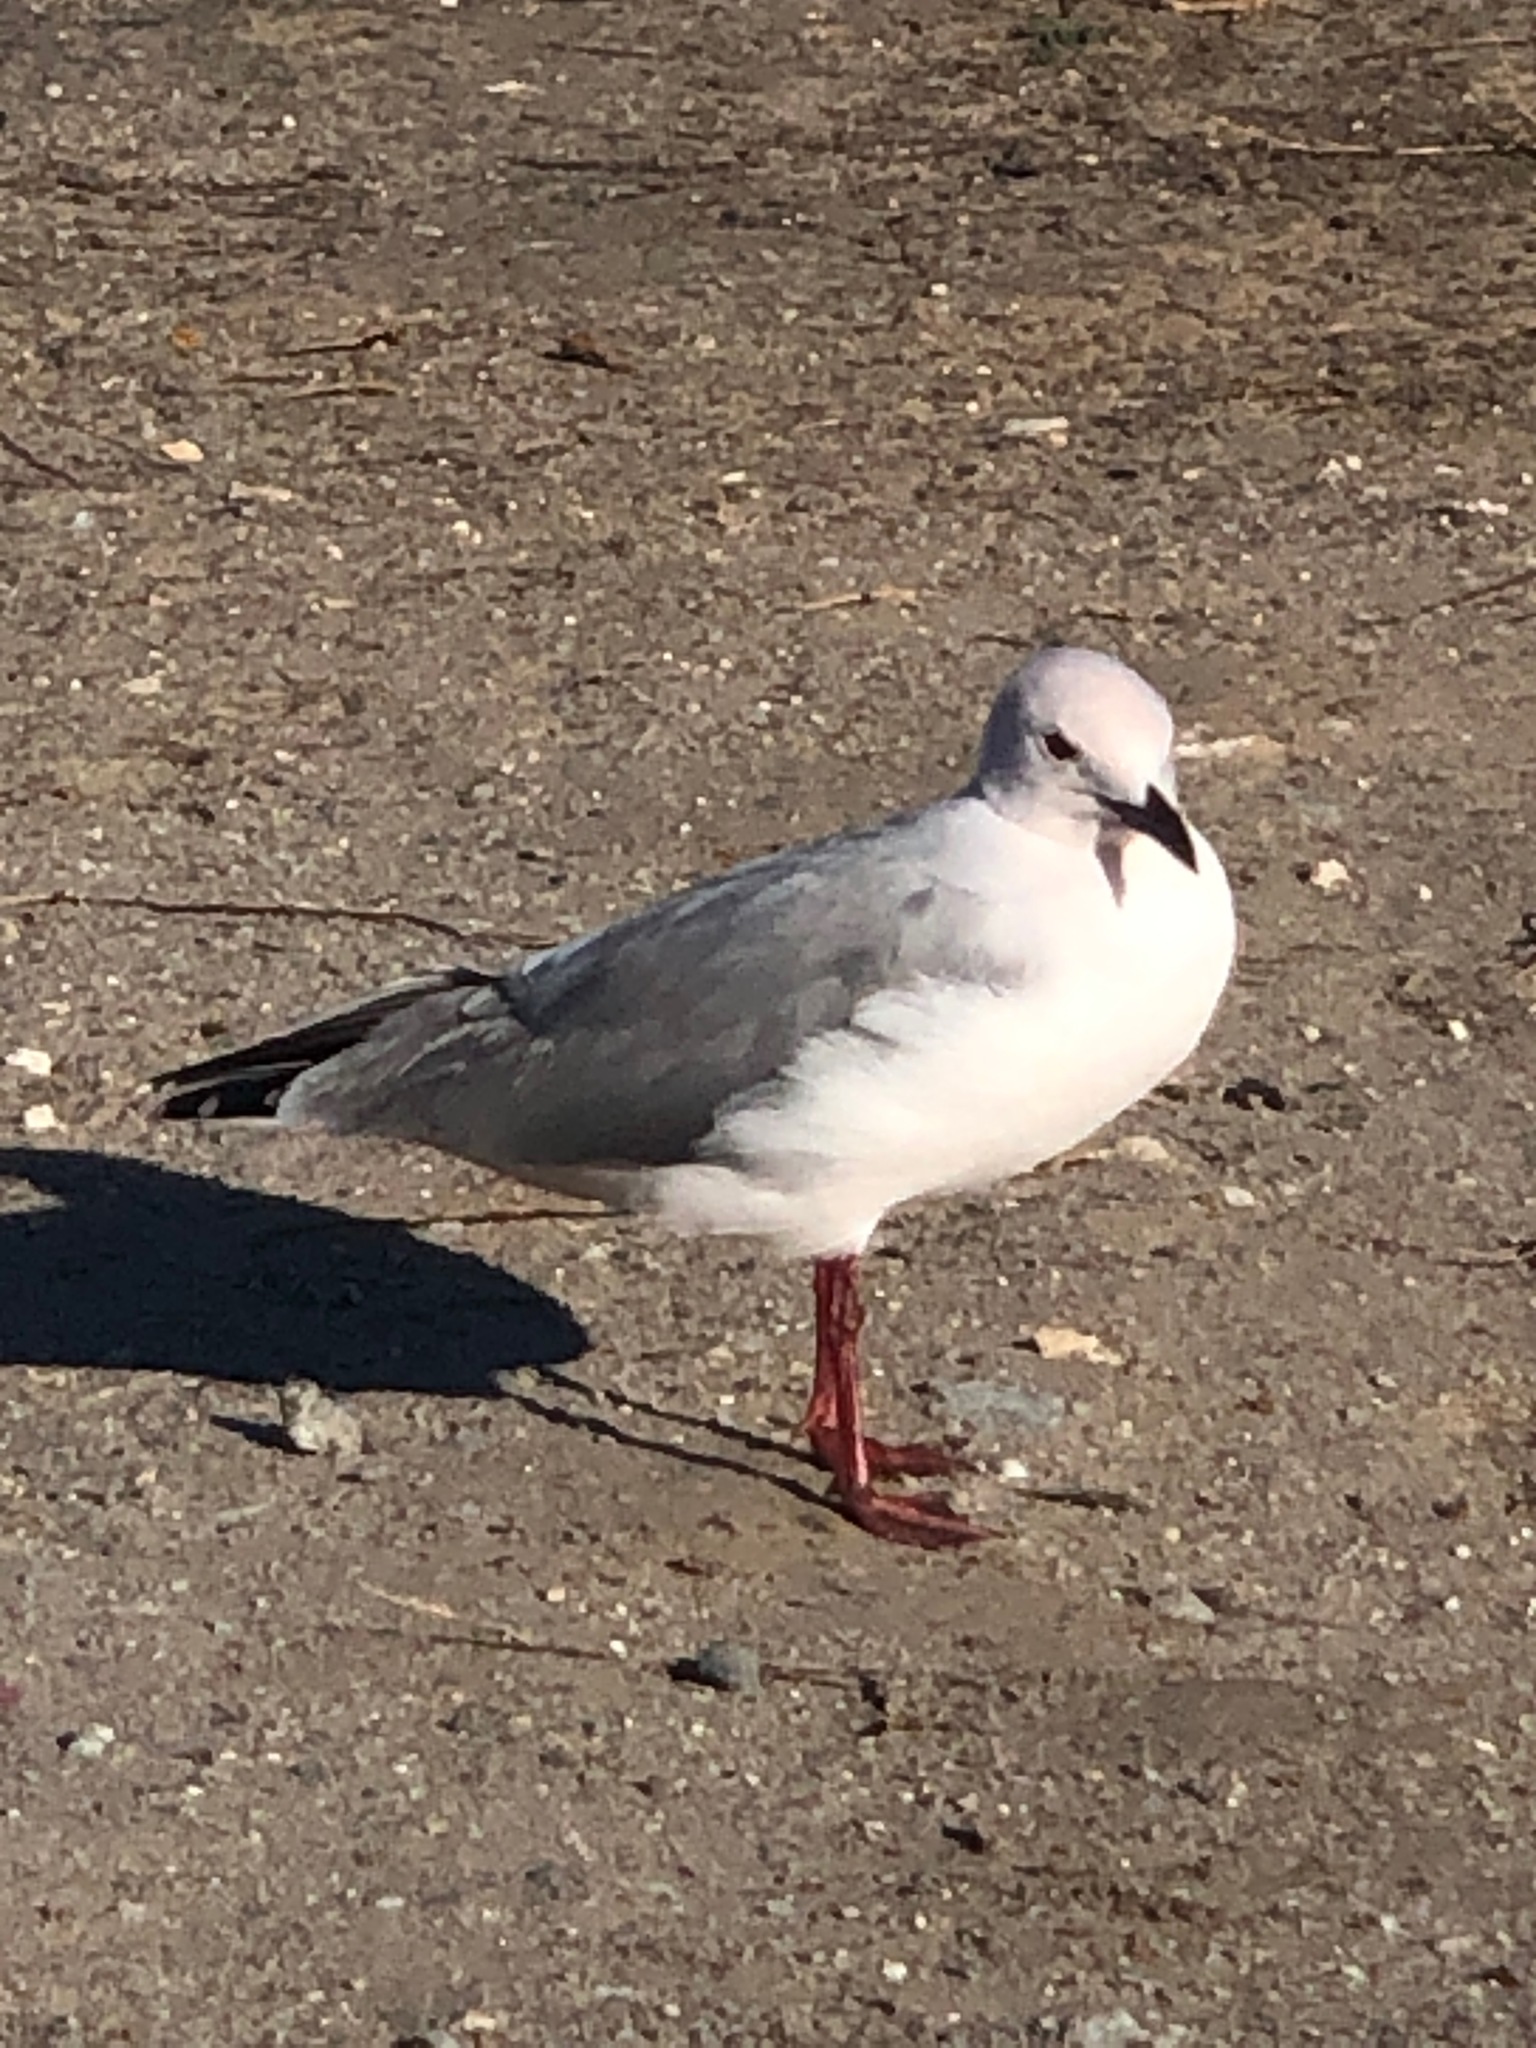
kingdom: Animalia
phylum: Chordata
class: Aves
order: Charadriiformes
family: Laridae
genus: Chroicocephalus
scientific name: Chroicocephalus hartlaubii
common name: Hartlaub's gull
